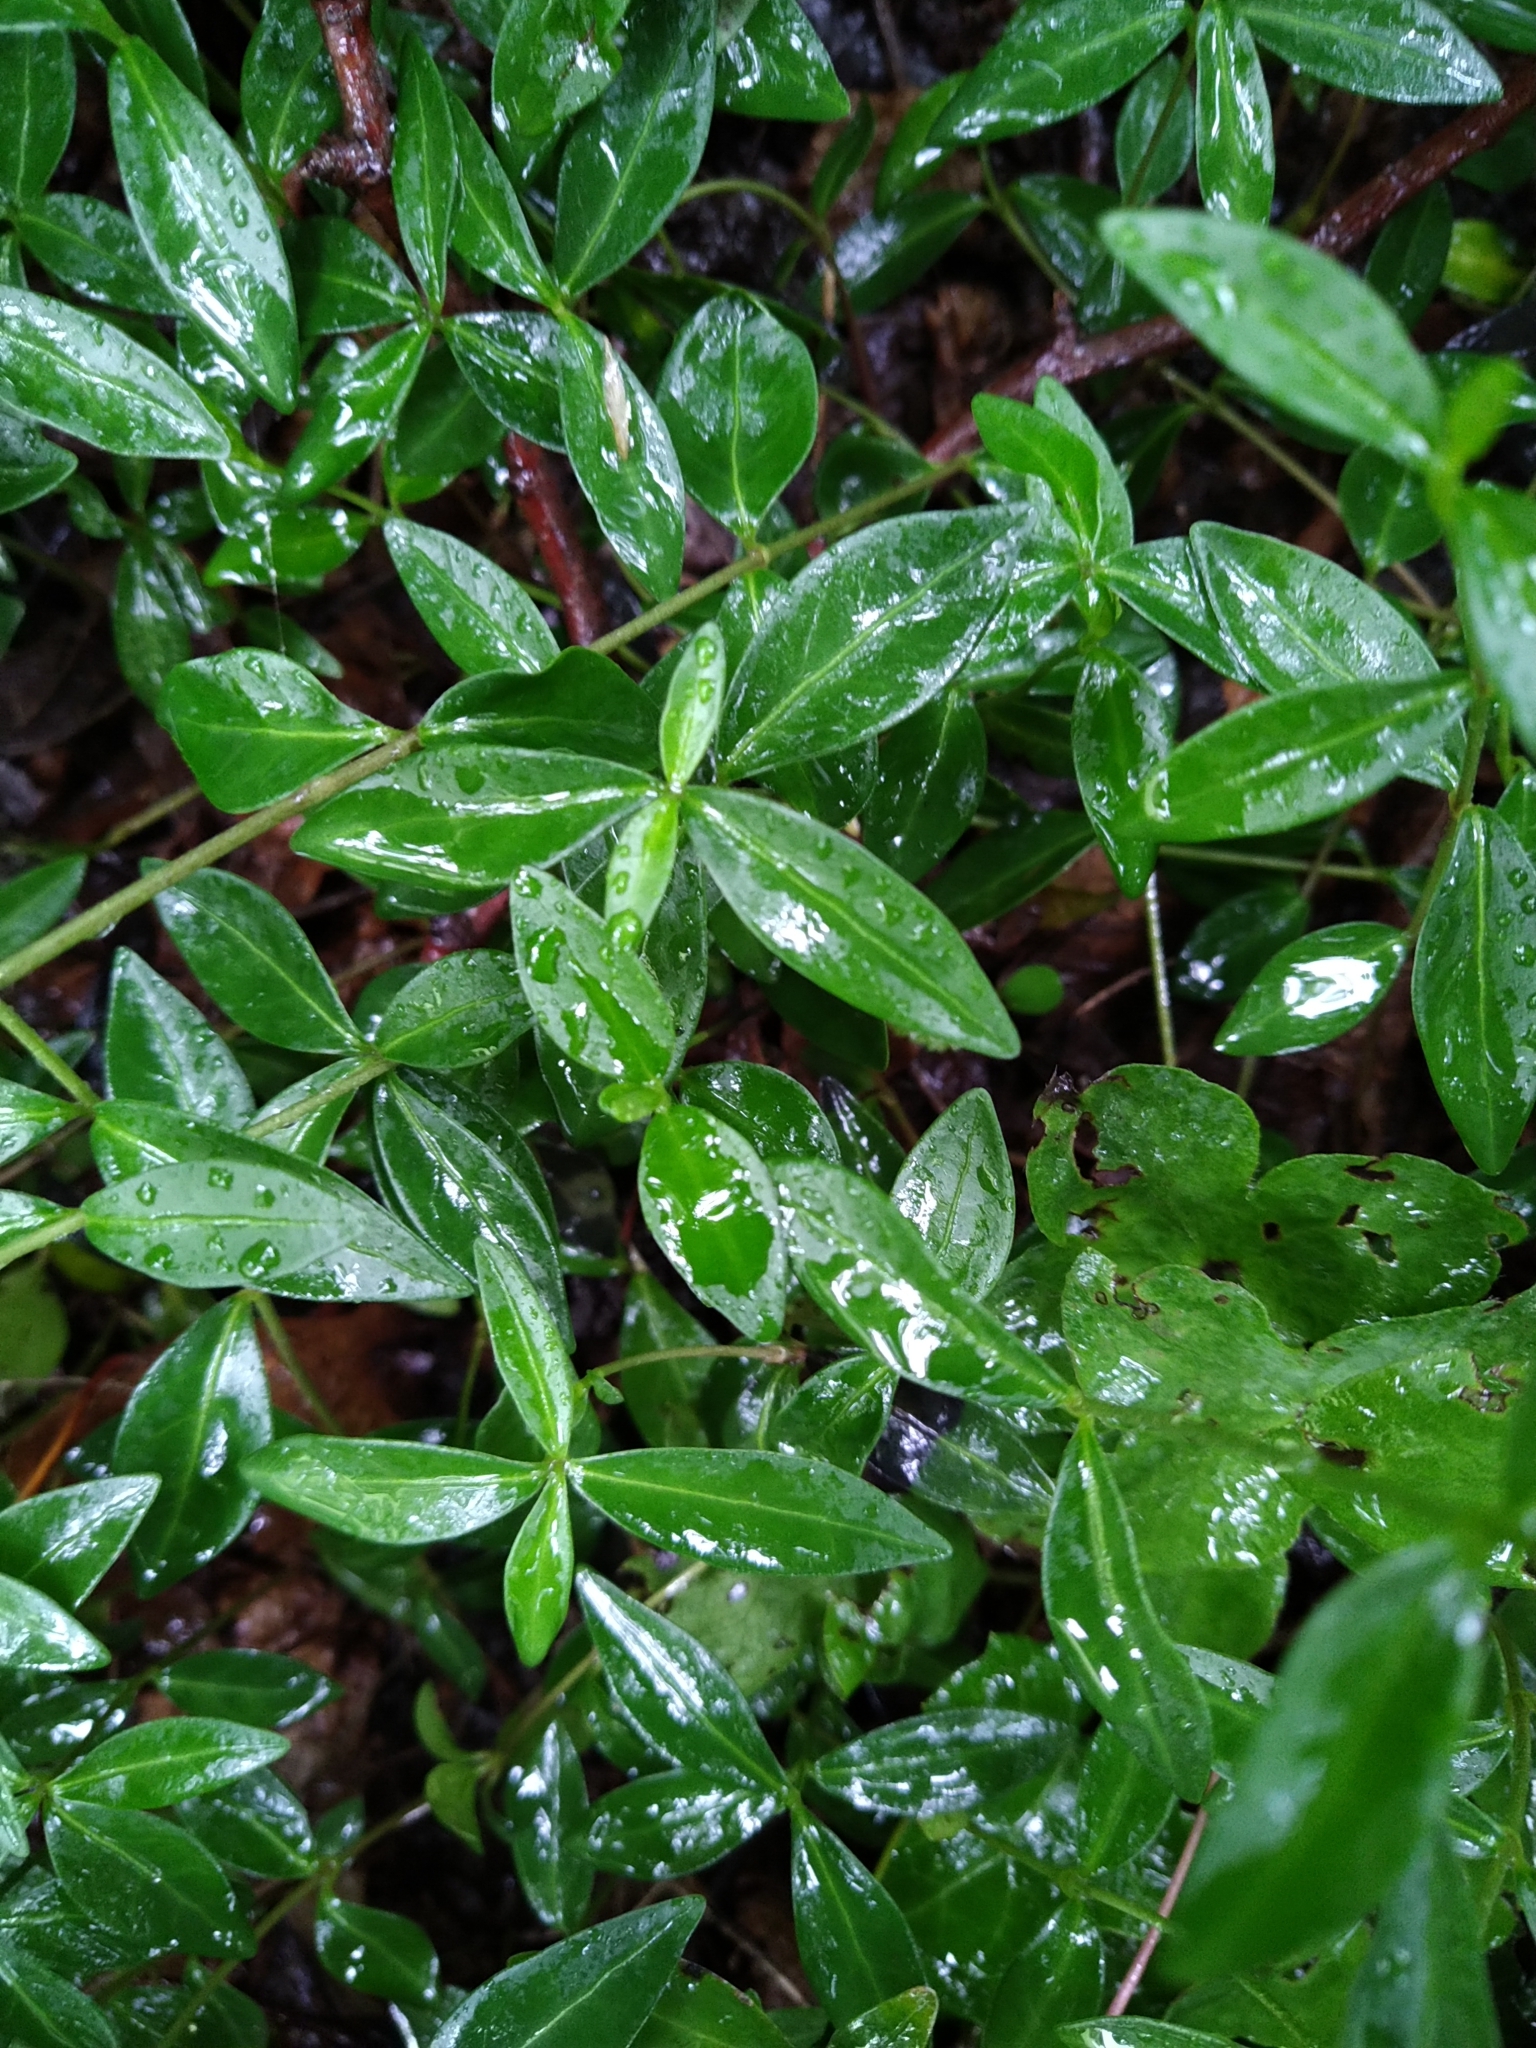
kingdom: Plantae
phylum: Tracheophyta
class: Magnoliopsida
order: Gentianales
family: Apocynaceae
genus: Vinca
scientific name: Vinca minor
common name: Lesser periwinkle
